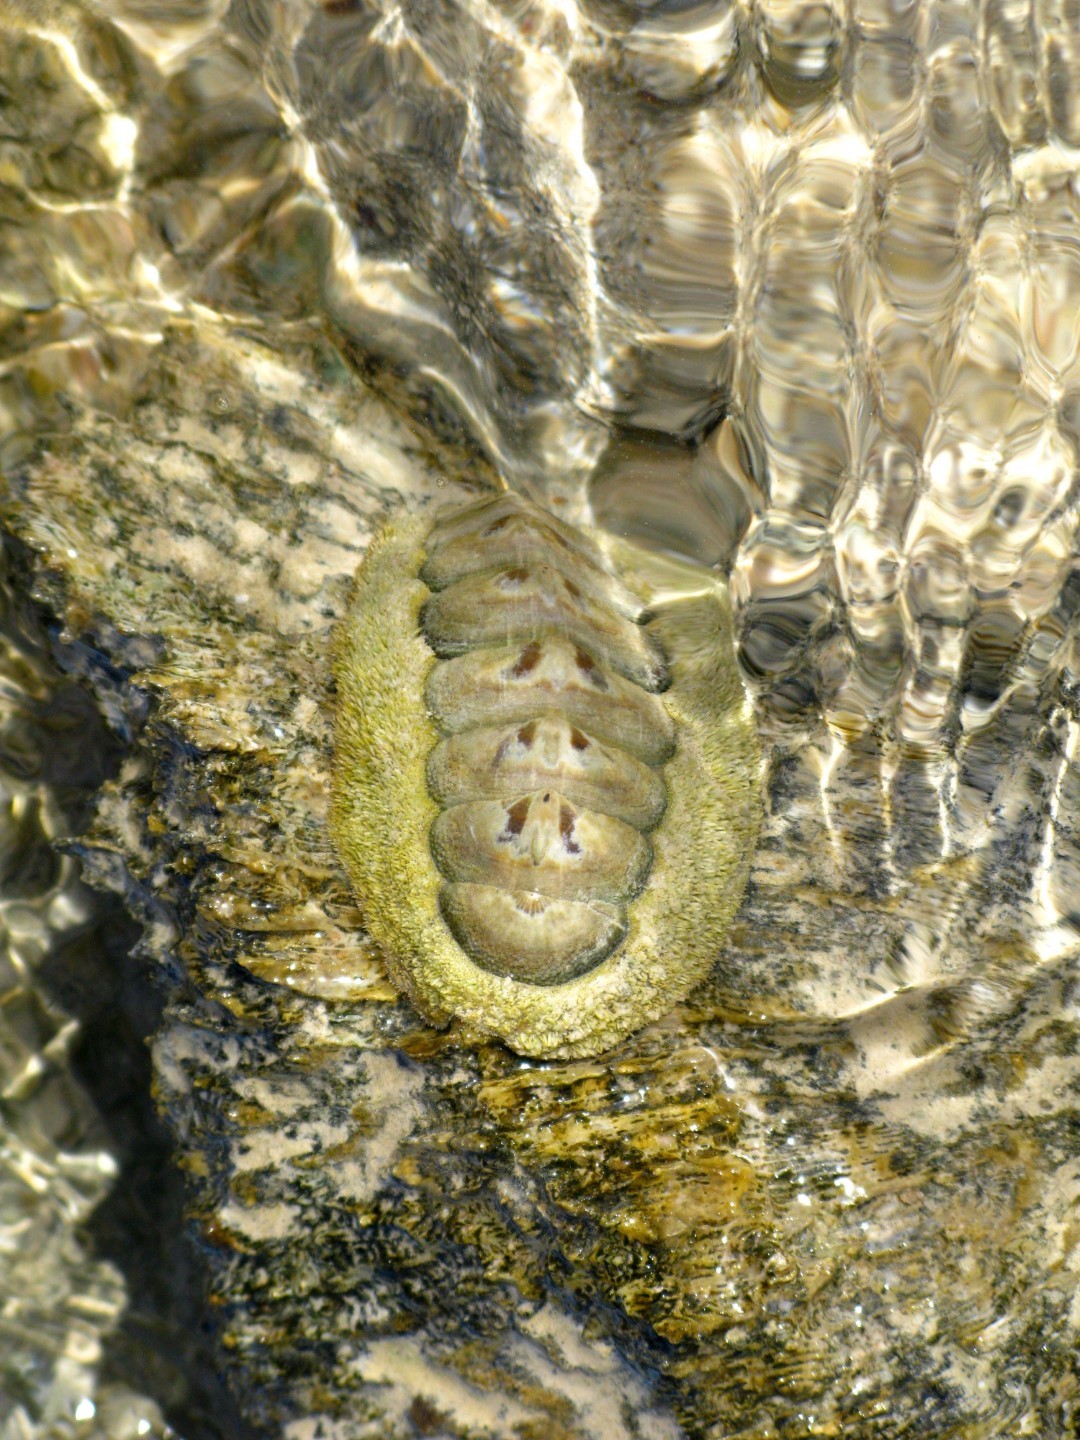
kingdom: Animalia
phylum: Mollusca
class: Polyplacophora
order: Chitonida
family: Chitonidae
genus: Acanthopleura
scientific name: Acanthopleura vaillantii
